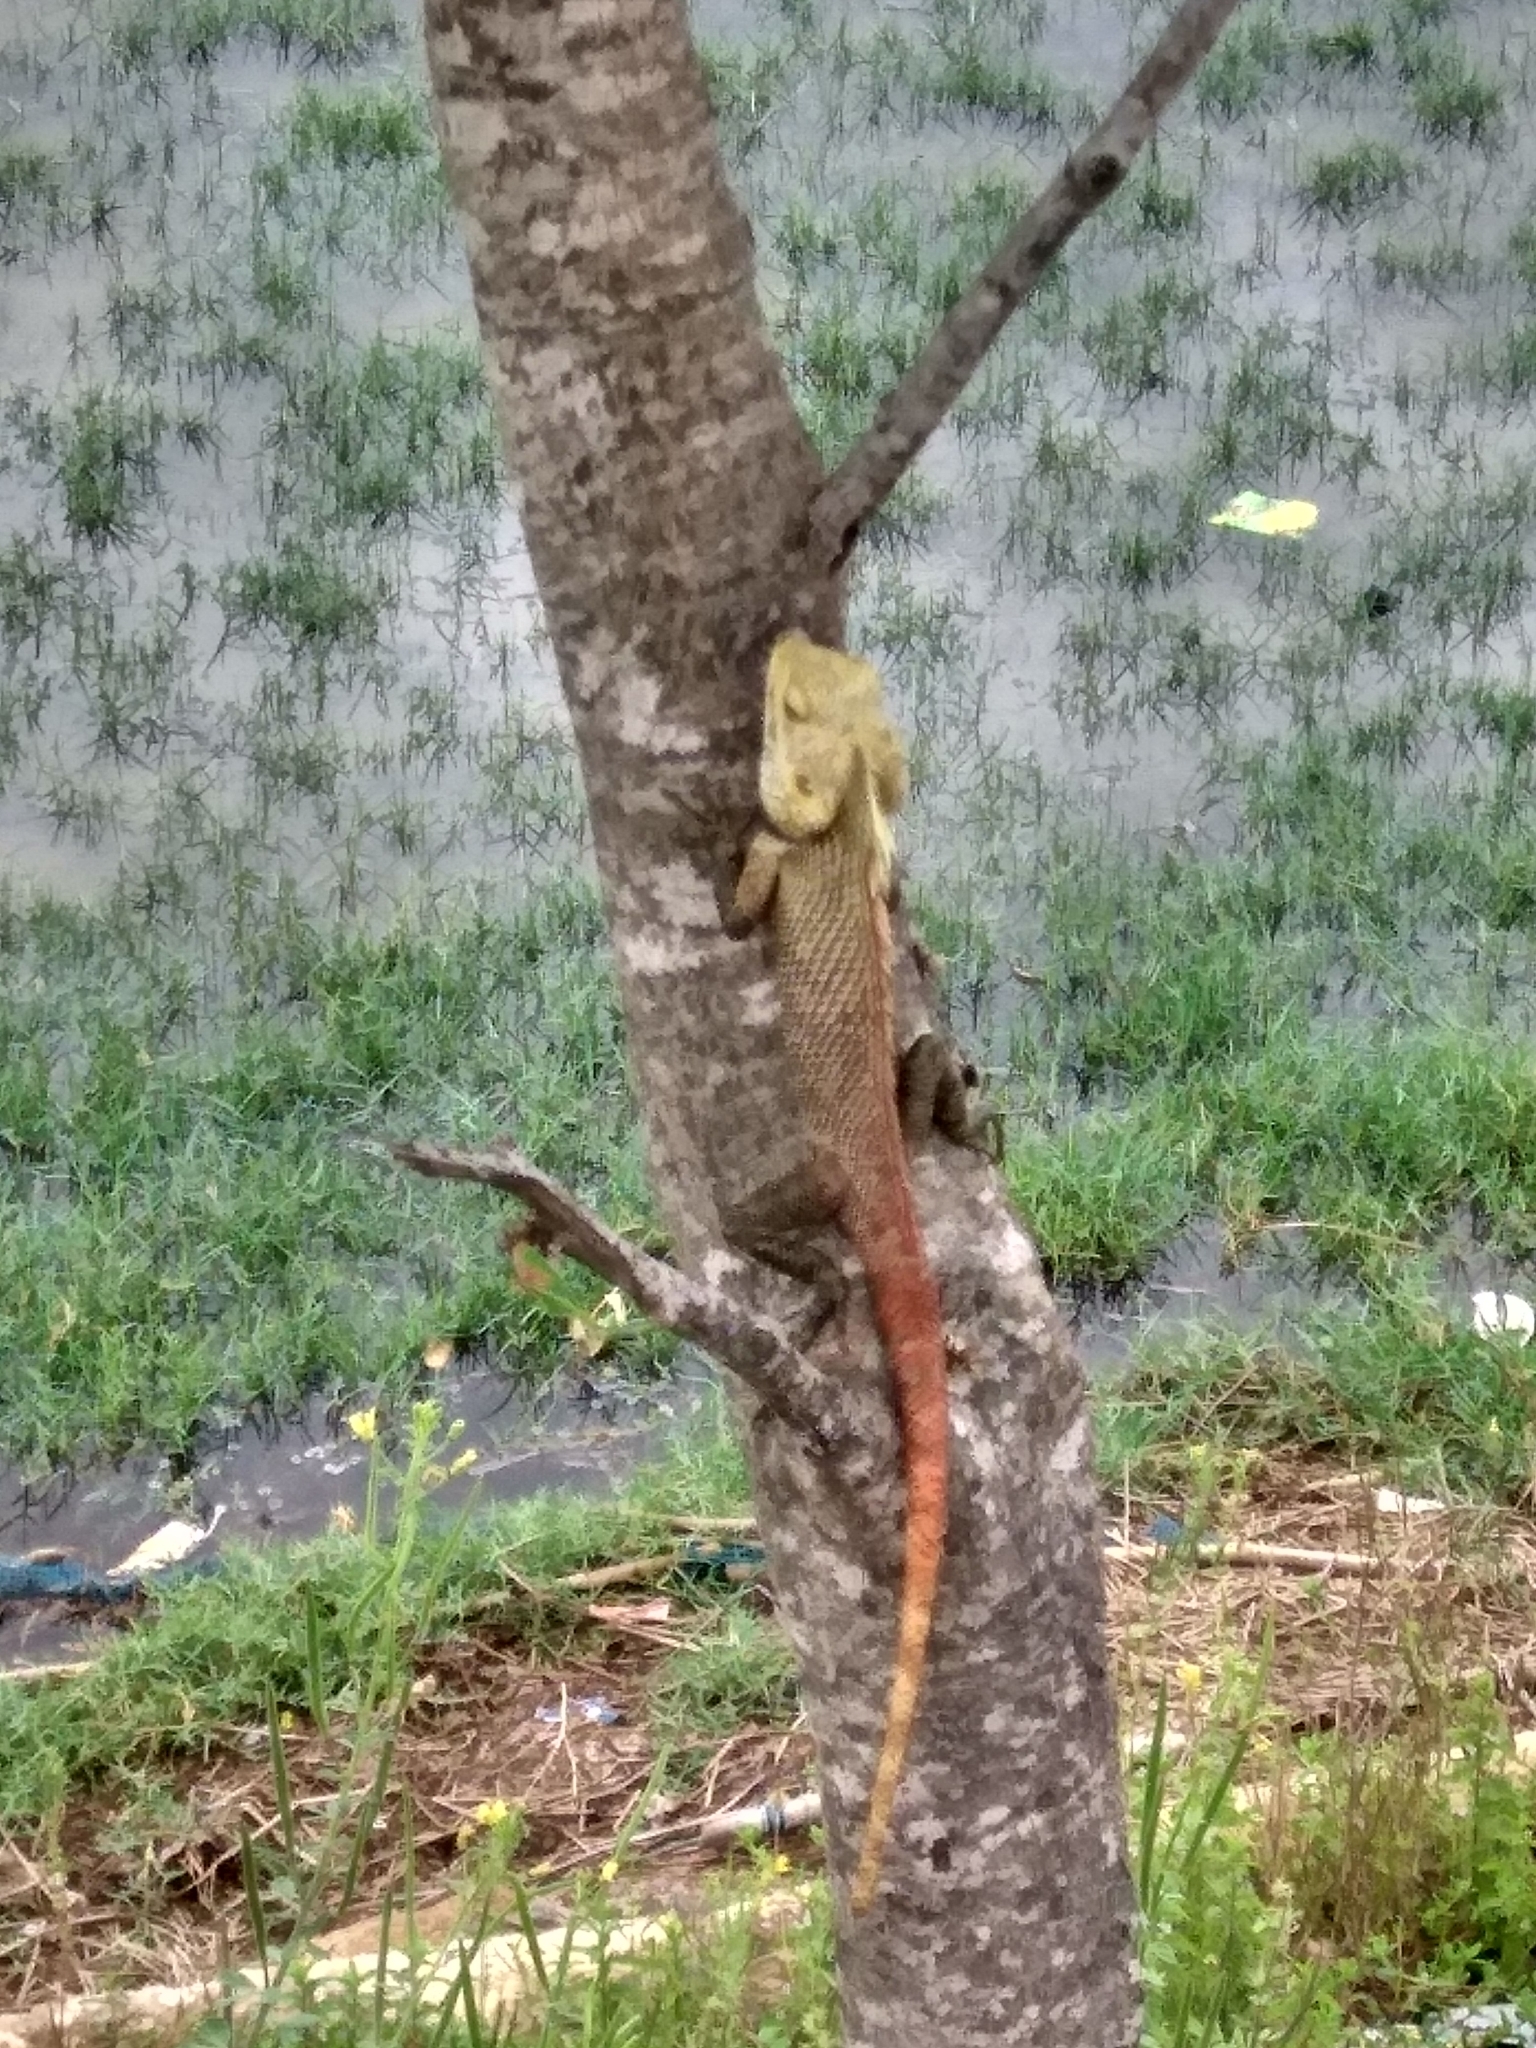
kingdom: Animalia
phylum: Chordata
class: Squamata
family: Agamidae
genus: Calotes
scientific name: Calotes versicolor
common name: Oriental garden lizard
